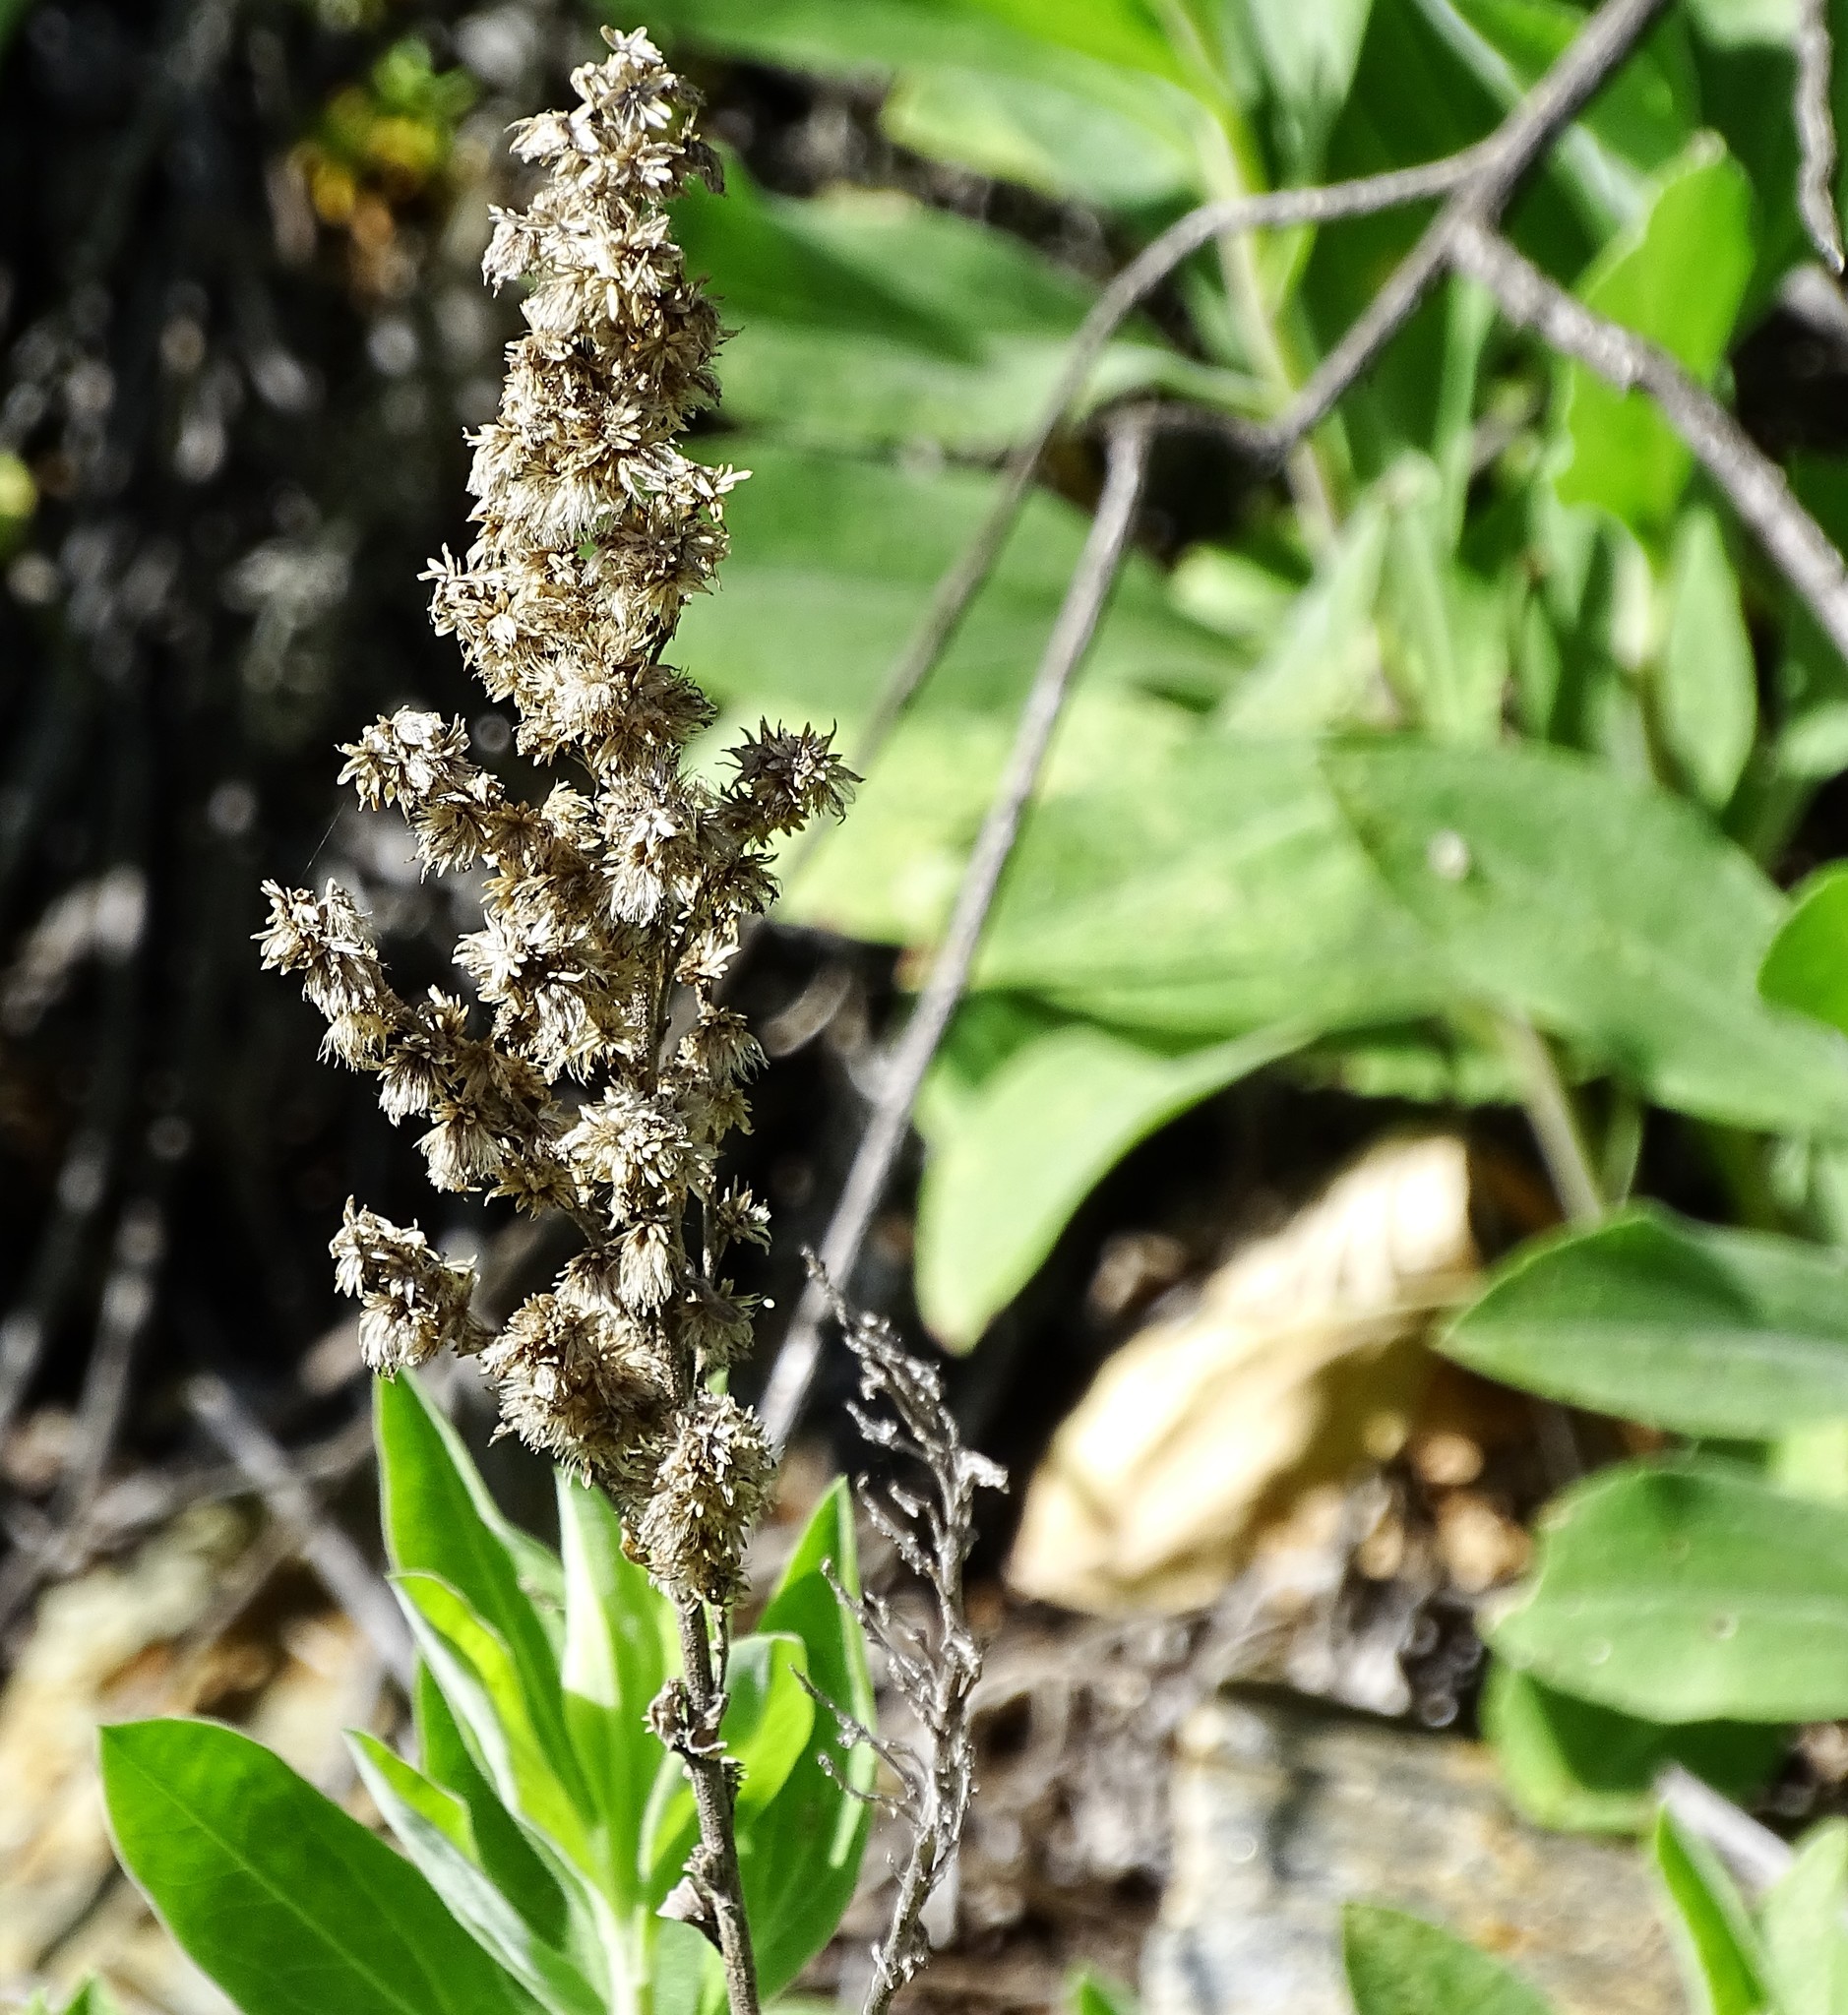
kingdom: Plantae
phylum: Tracheophyta
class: Magnoliopsida
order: Asterales
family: Asteraceae
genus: Solidago
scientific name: Solidago velutina
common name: Three-nerve goldenrod
